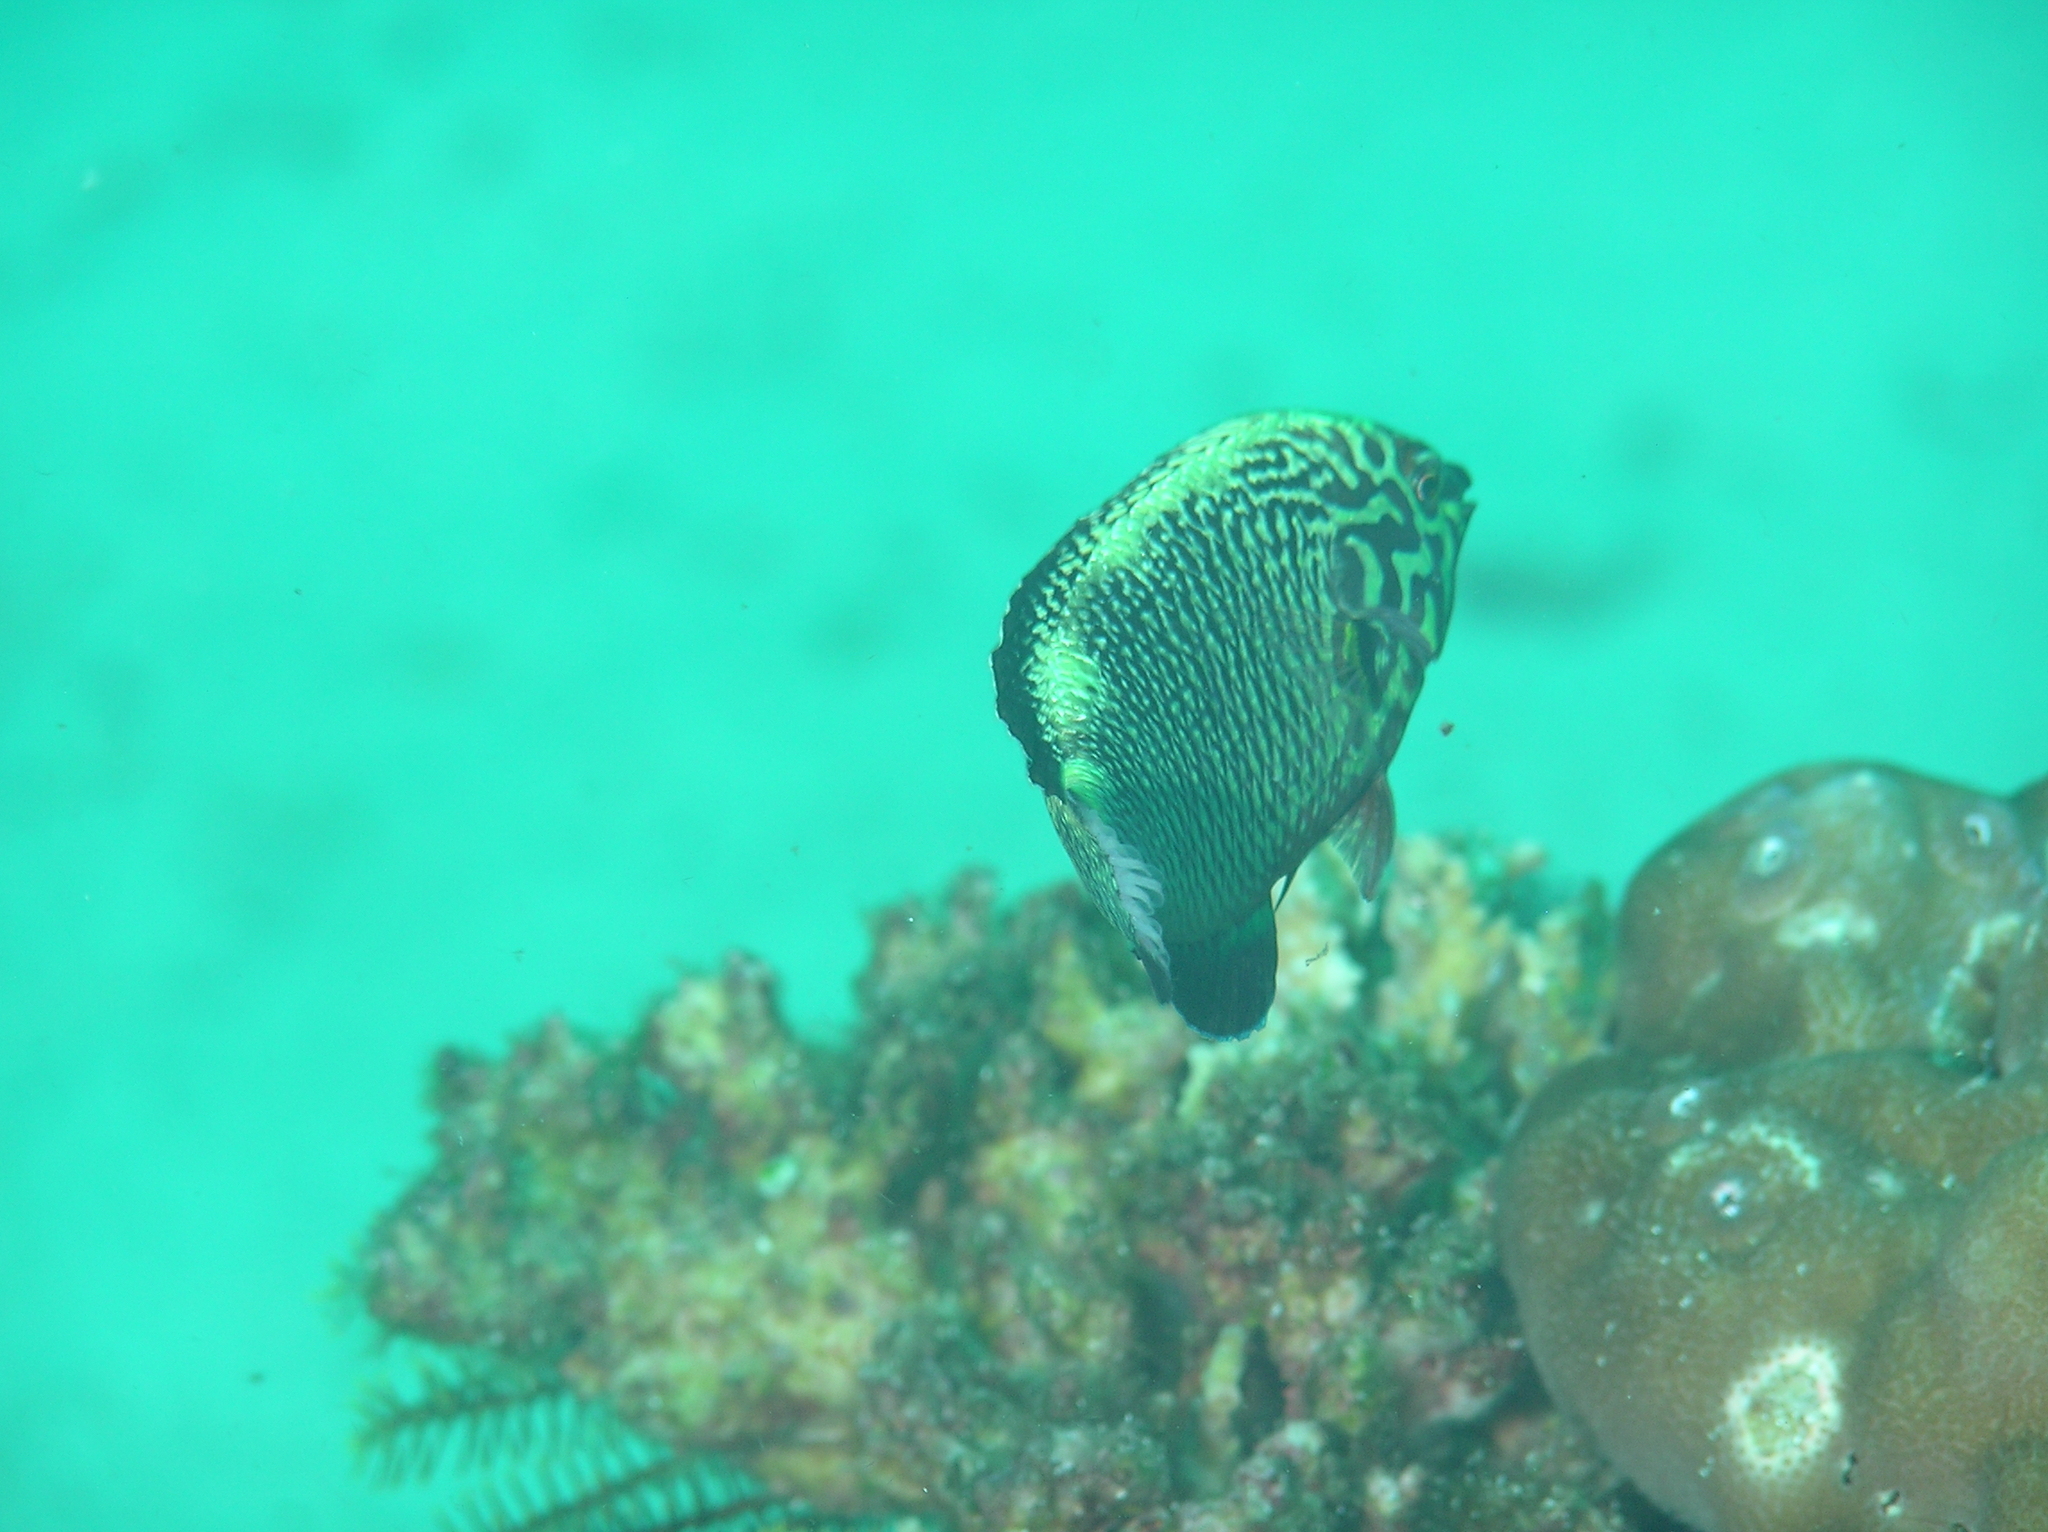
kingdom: Animalia
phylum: Chordata
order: Perciformes
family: Labridae
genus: Macropharyngodon
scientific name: Macropharyngodon negrosensis
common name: Black leopard wrasse
